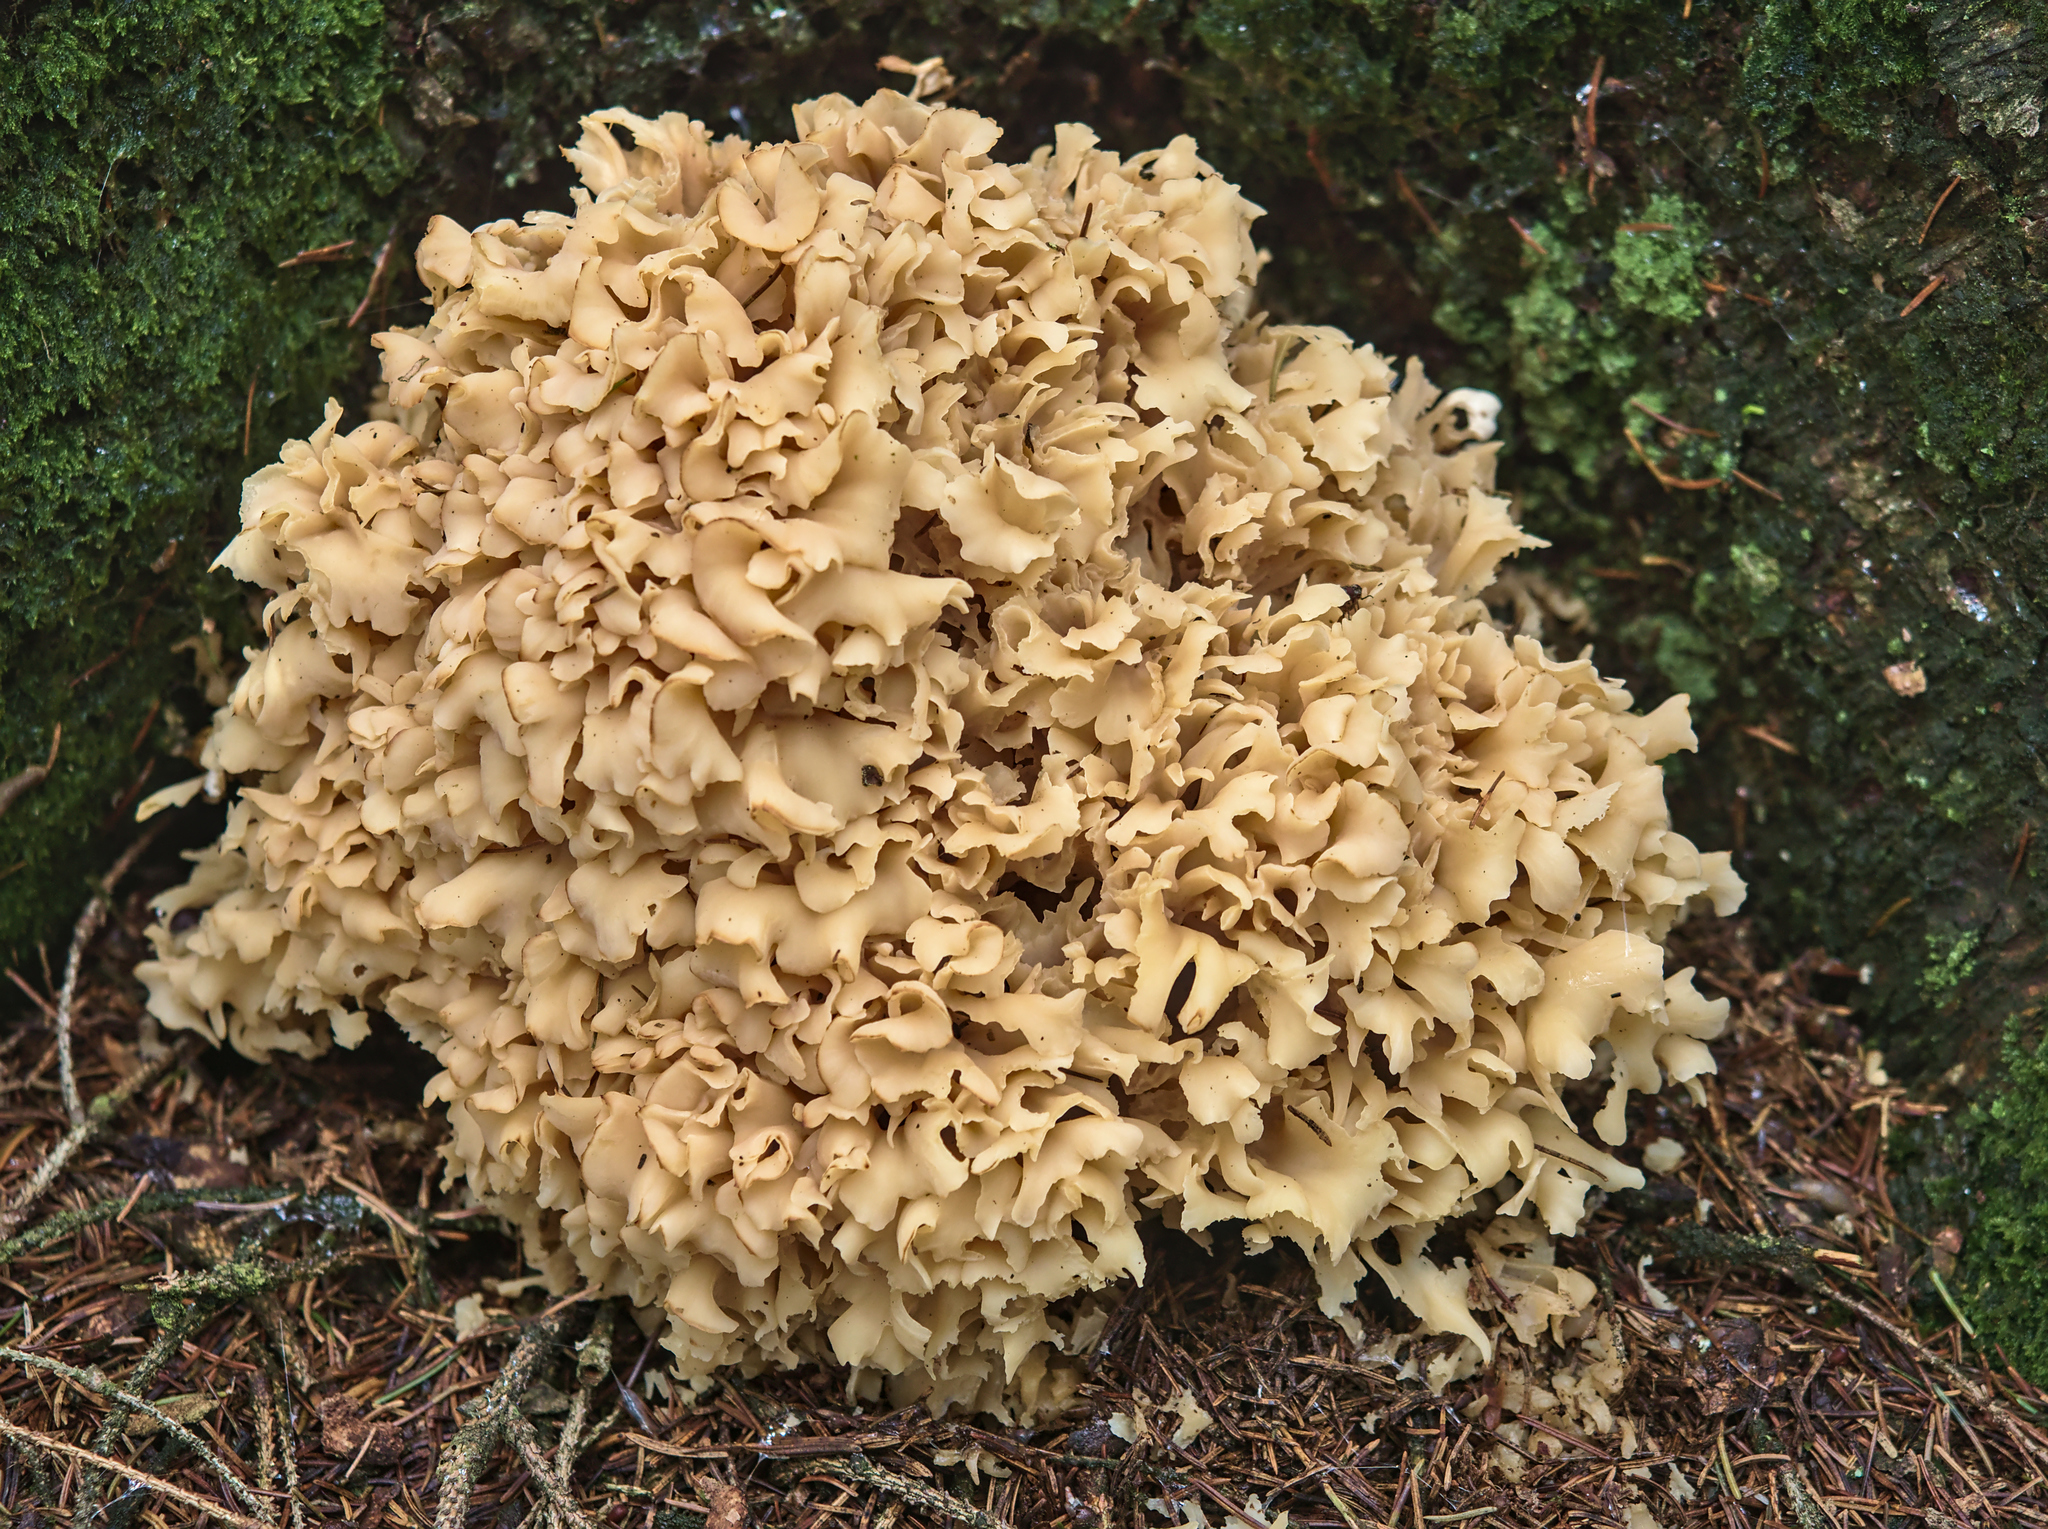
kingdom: Fungi
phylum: Basidiomycota
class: Agaricomycetes
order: Polyporales
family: Sparassidaceae
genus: Sparassis
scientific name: Sparassis crispa
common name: Brain fungus
